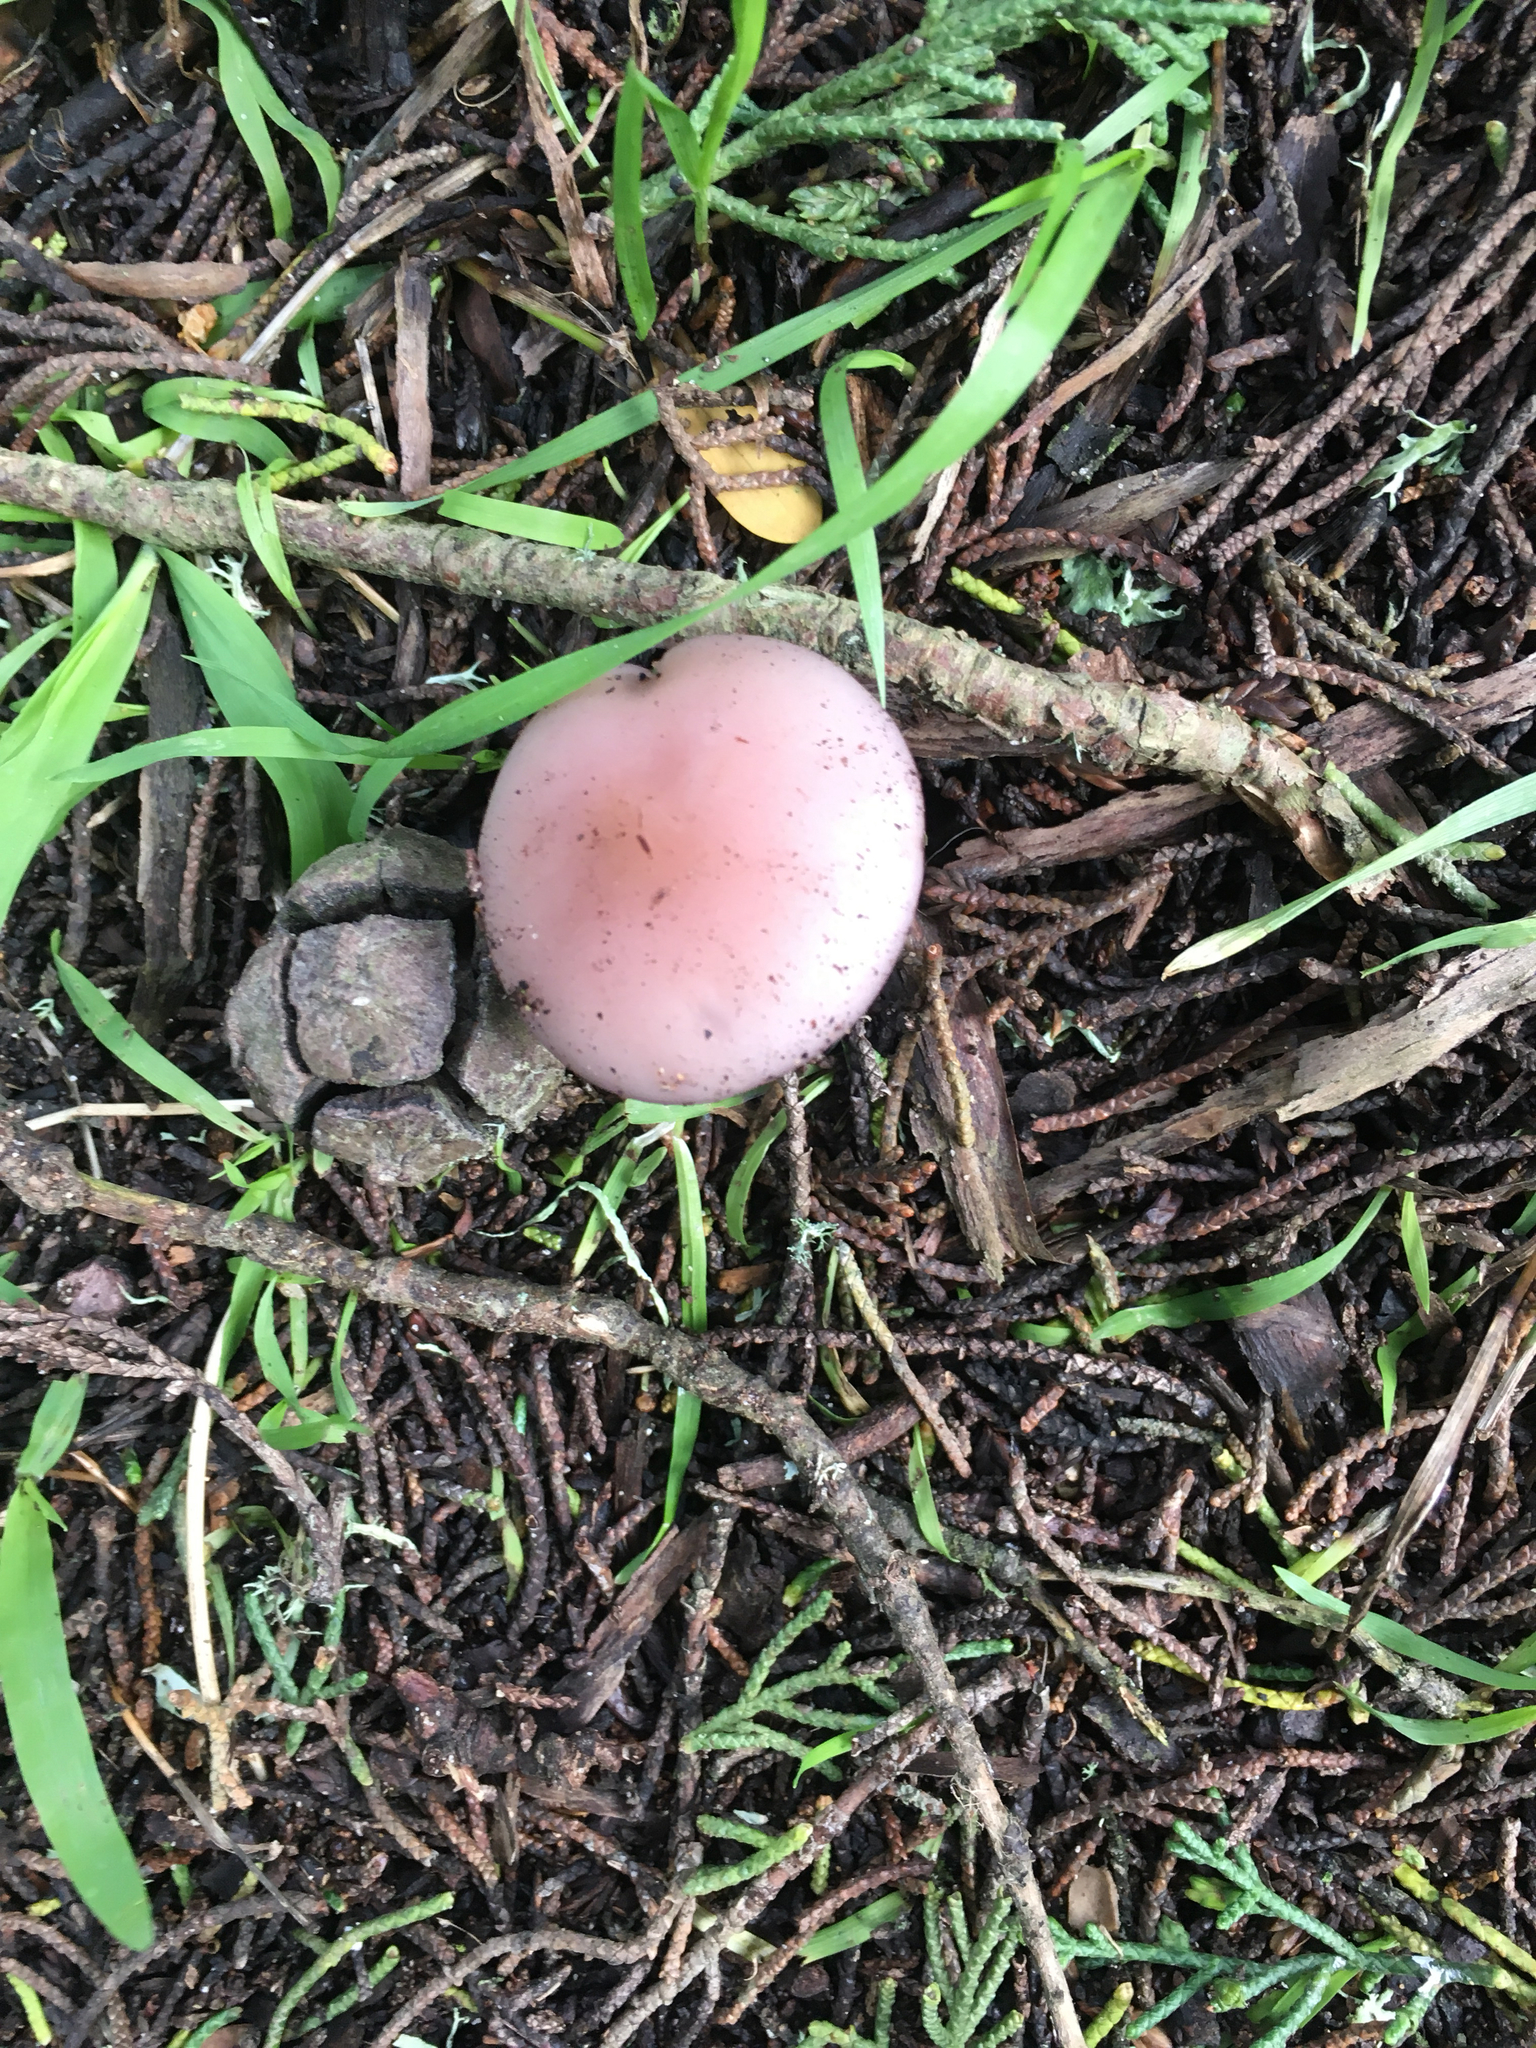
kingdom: Fungi
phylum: Basidiomycota
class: Agaricomycetes
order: Agaricales
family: Tricholomataceae
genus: Collybia
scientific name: Collybia
